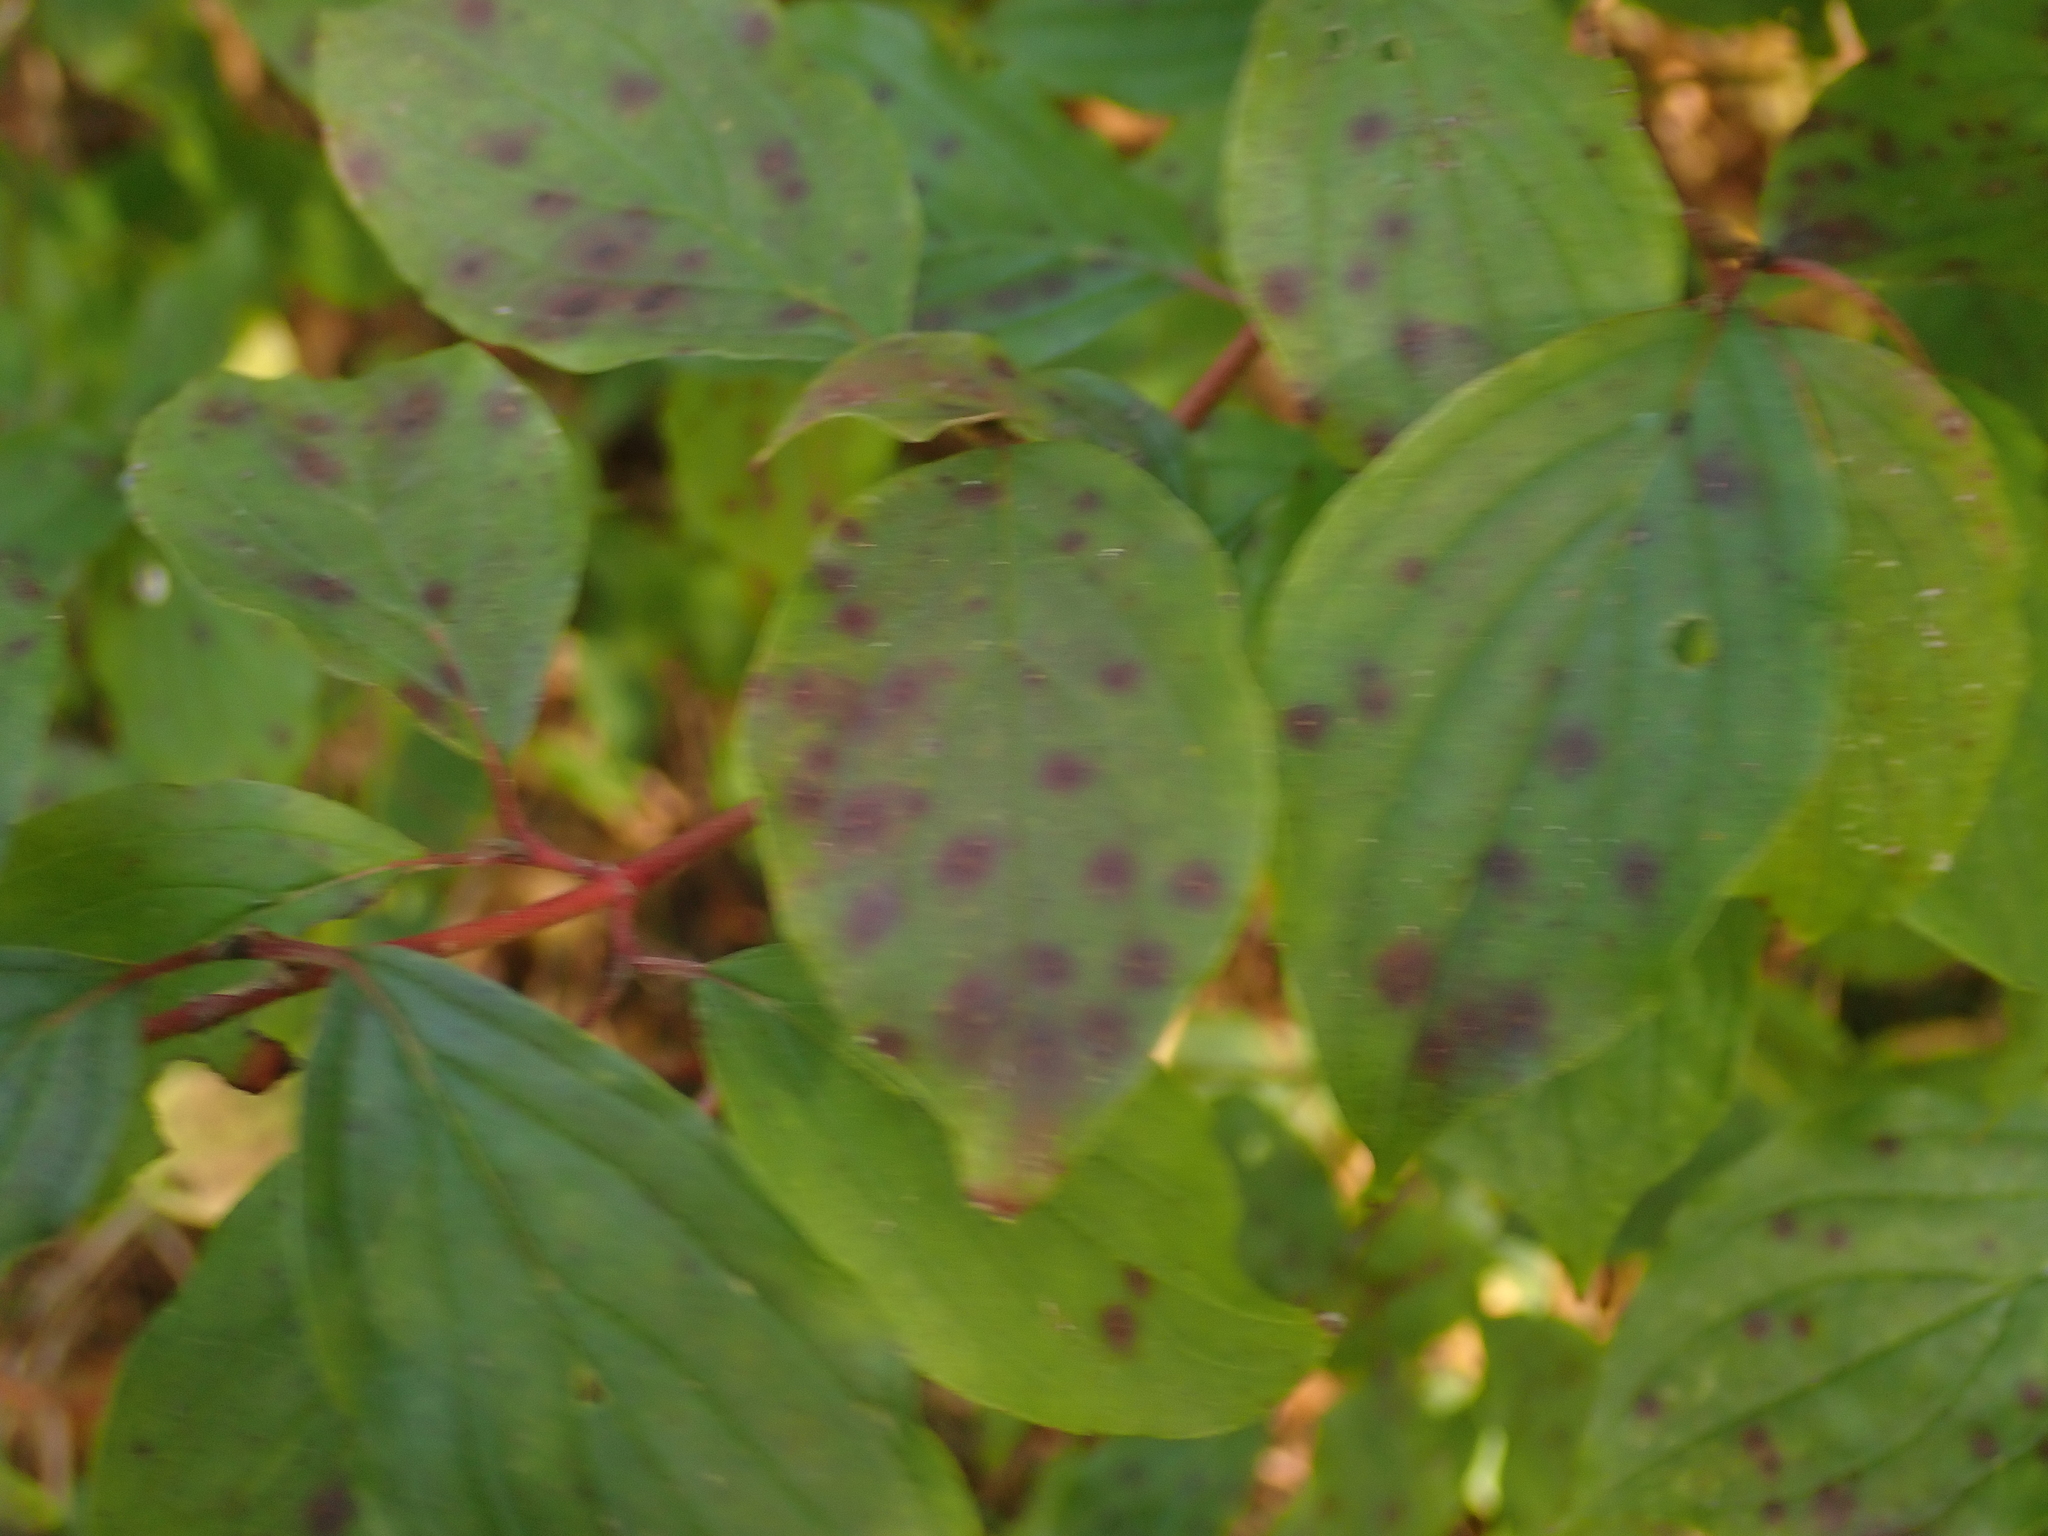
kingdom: Plantae
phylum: Tracheophyta
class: Magnoliopsida
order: Cornales
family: Cornaceae
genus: Cornus
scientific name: Cornus sanguinea
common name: Dogwood
